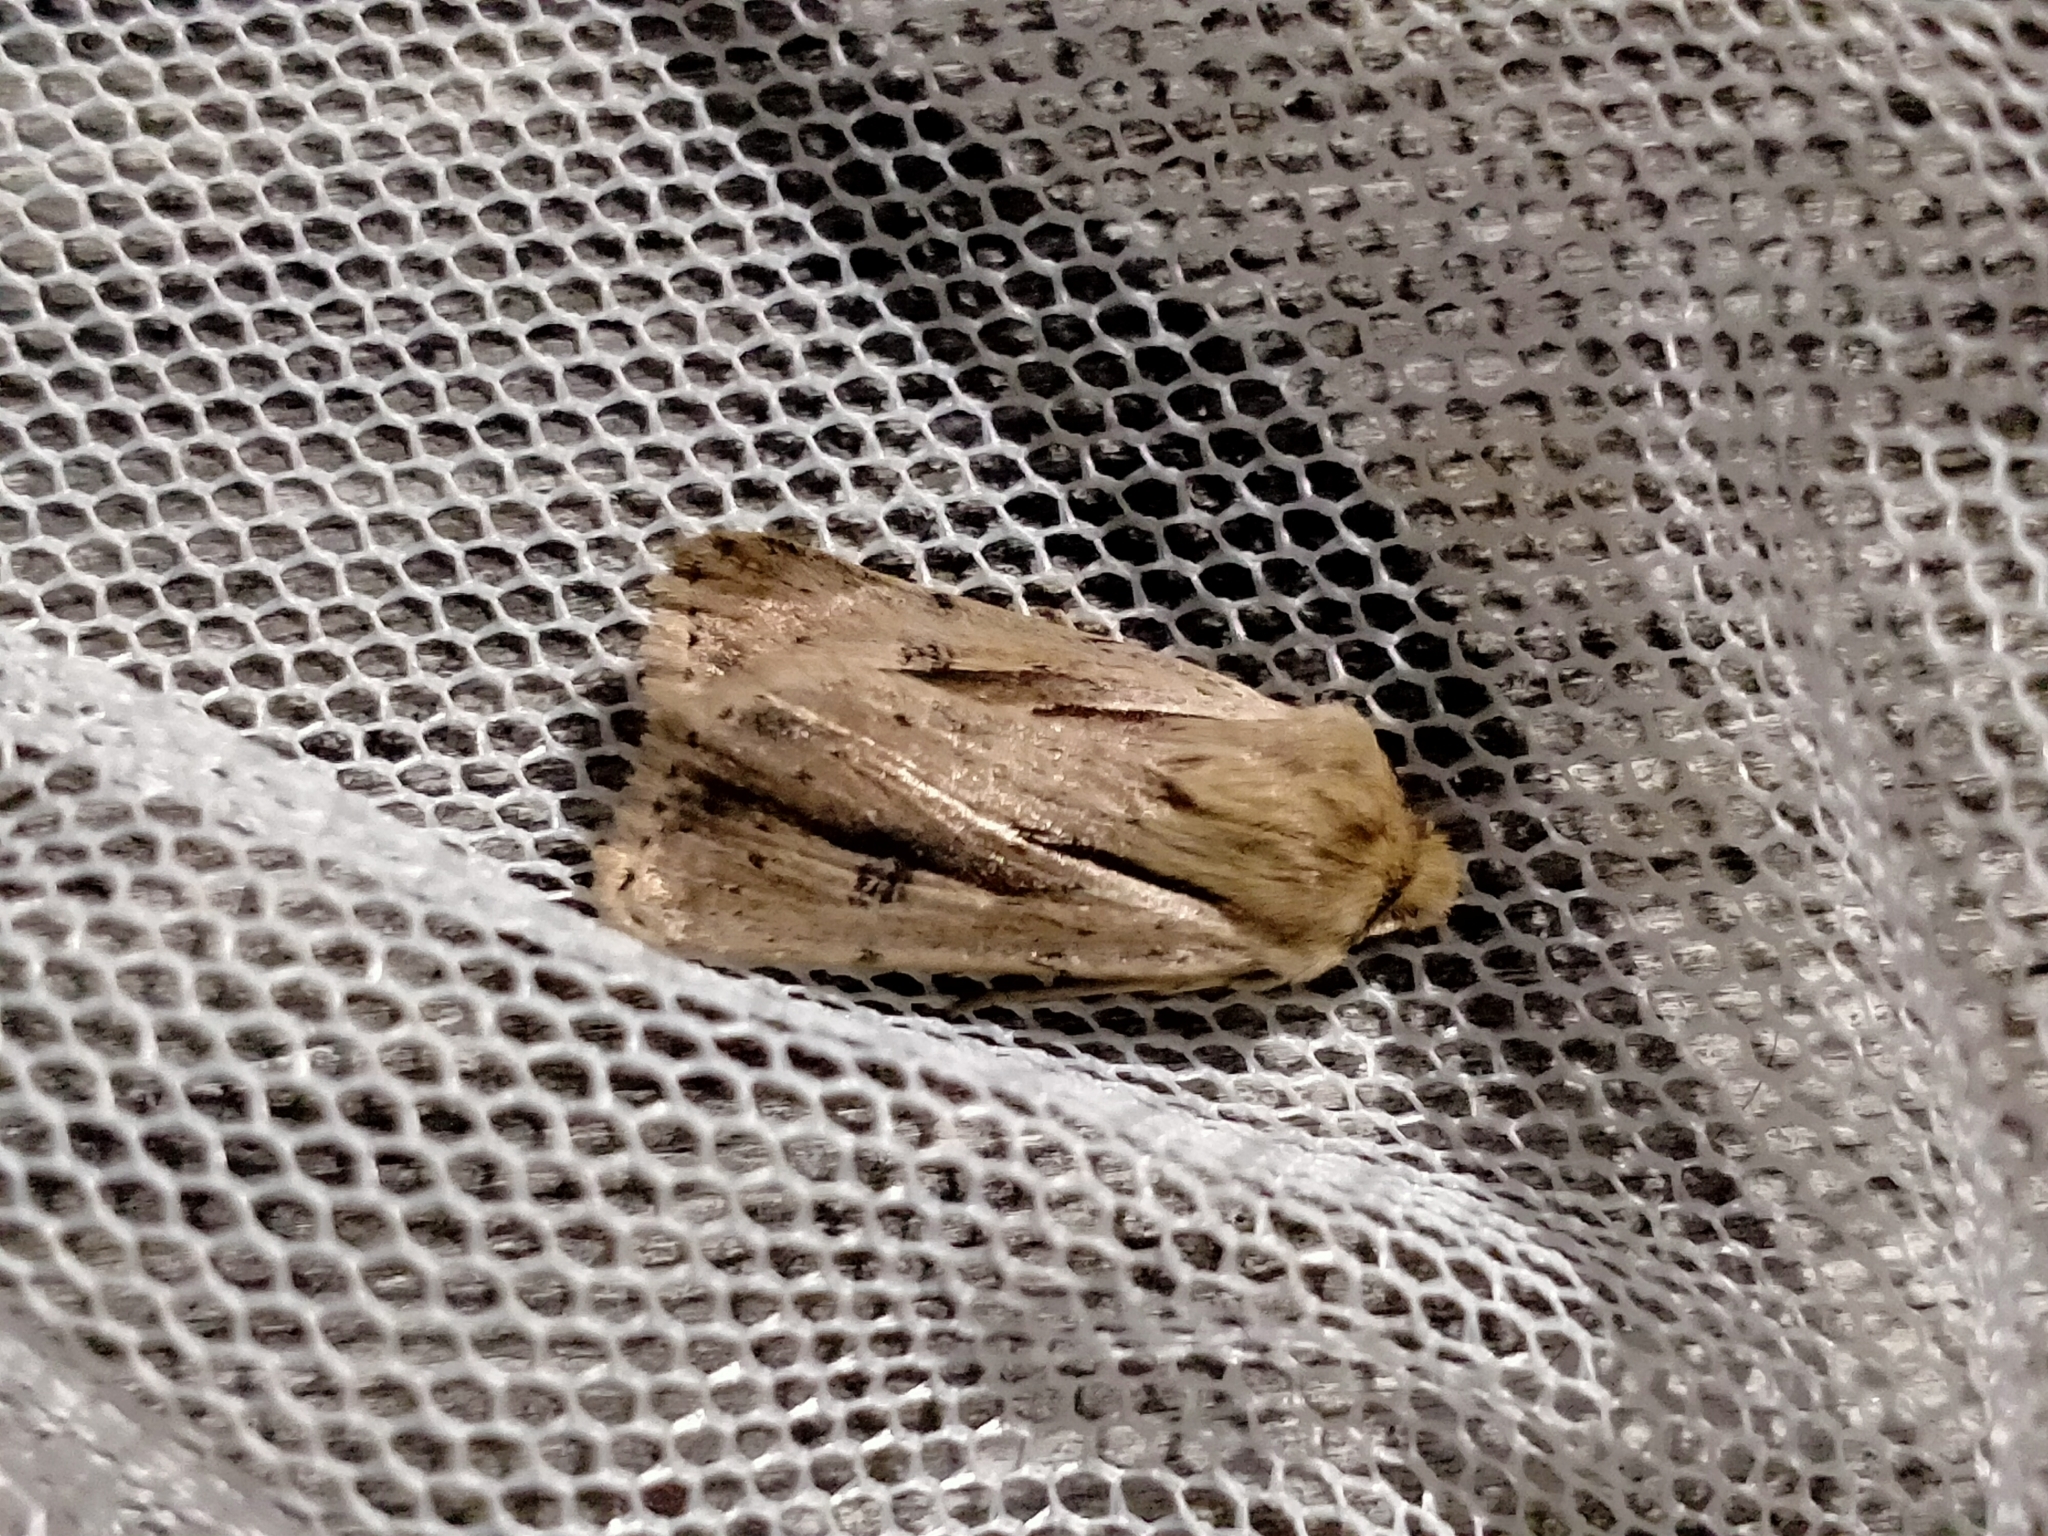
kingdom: Animalia
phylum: Arthropoda
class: Insecta
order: Lepidoptera
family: Noctuidae
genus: Ichneutica
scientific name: Ichneutica propria
